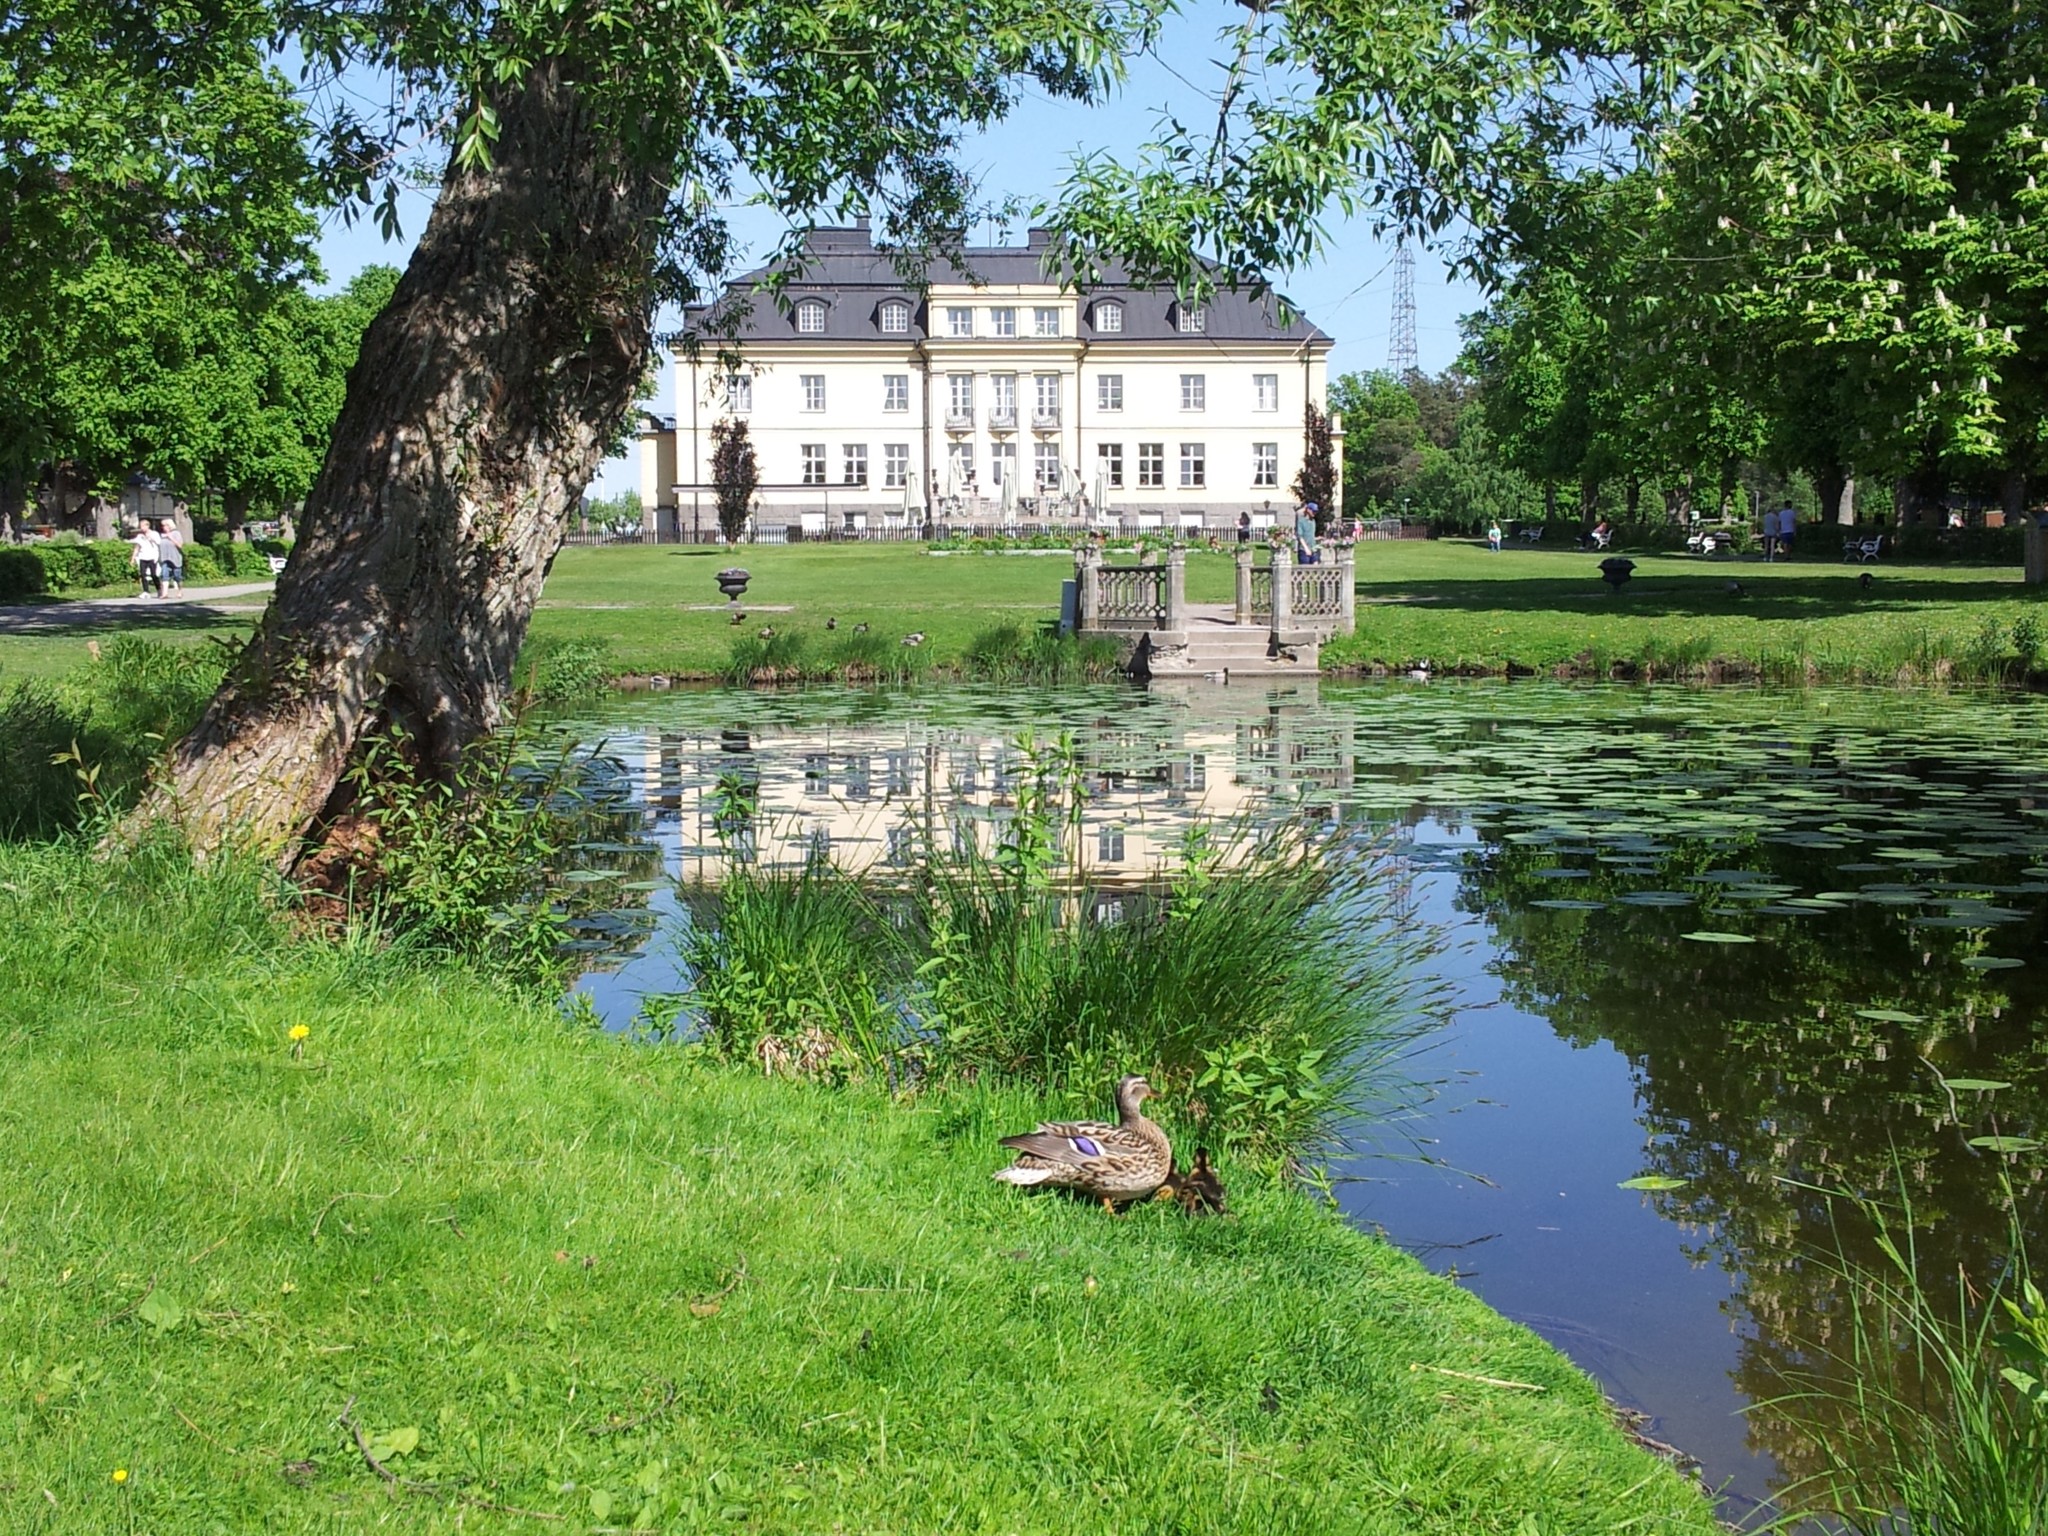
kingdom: Animalia
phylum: Chordata
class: Aves
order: Anseriformes
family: Anatidae
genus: Anas
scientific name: Anas platyrhynchos
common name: Mallard
